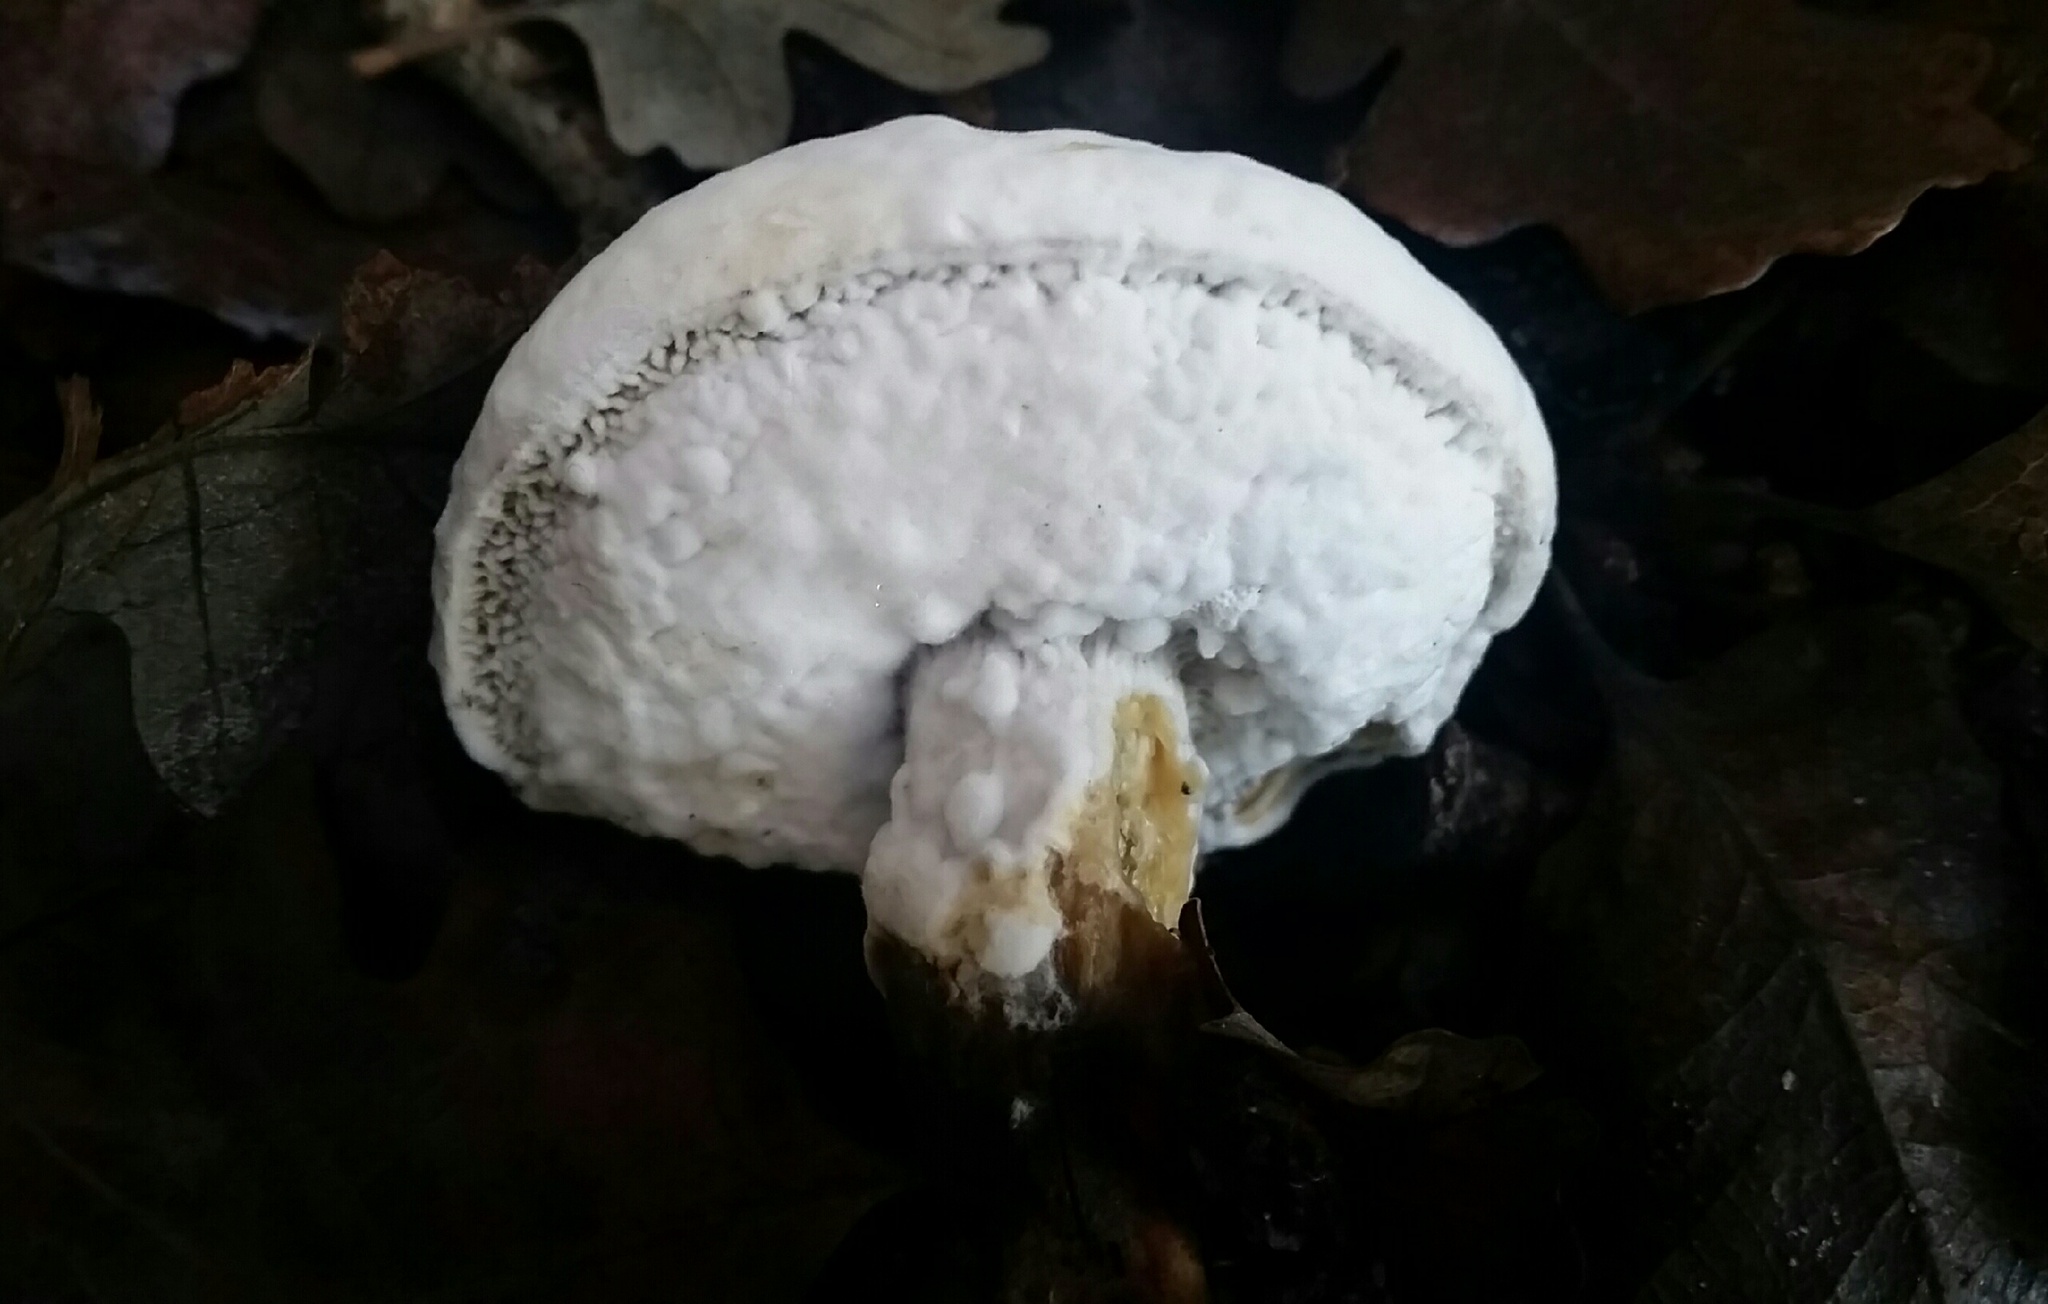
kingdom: Fungi
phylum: Ascomycota
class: Sordariomycetes
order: Hypocreales
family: Hypocreaceae
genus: Hypomyces
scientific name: Hypomyces chrysospermus
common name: Bolete mould
